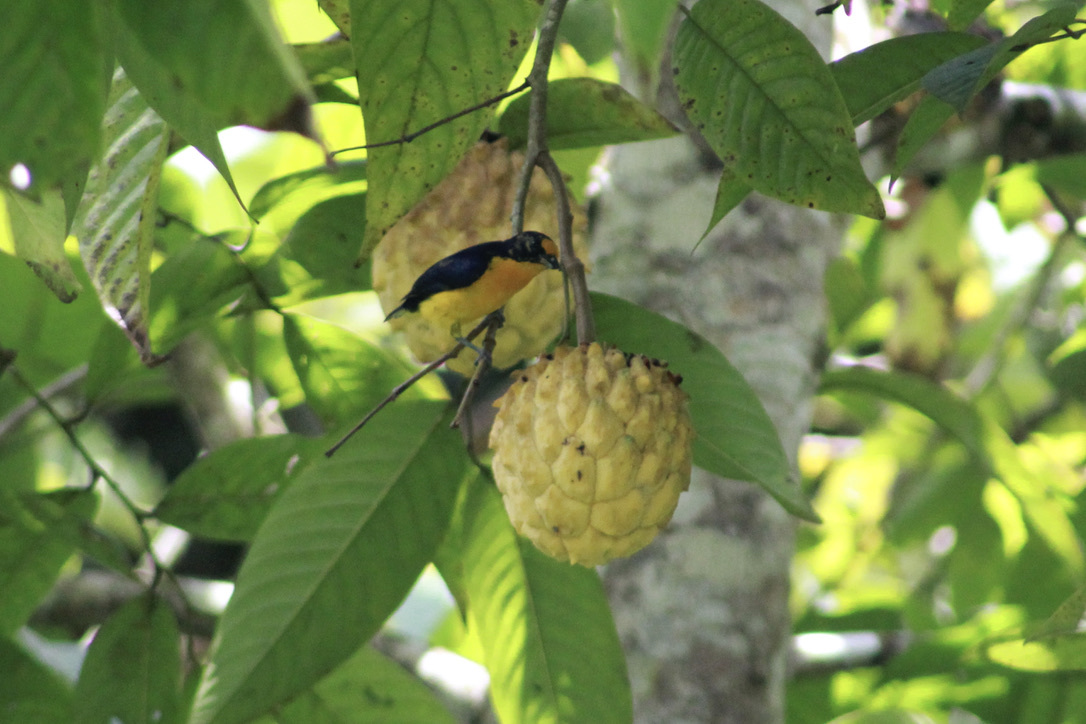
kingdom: Animalia
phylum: Chordata
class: Aves
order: Passeriformes
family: Fringillidae
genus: Euphonia
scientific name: Euphonia violacea
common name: Violaceous euphonia
